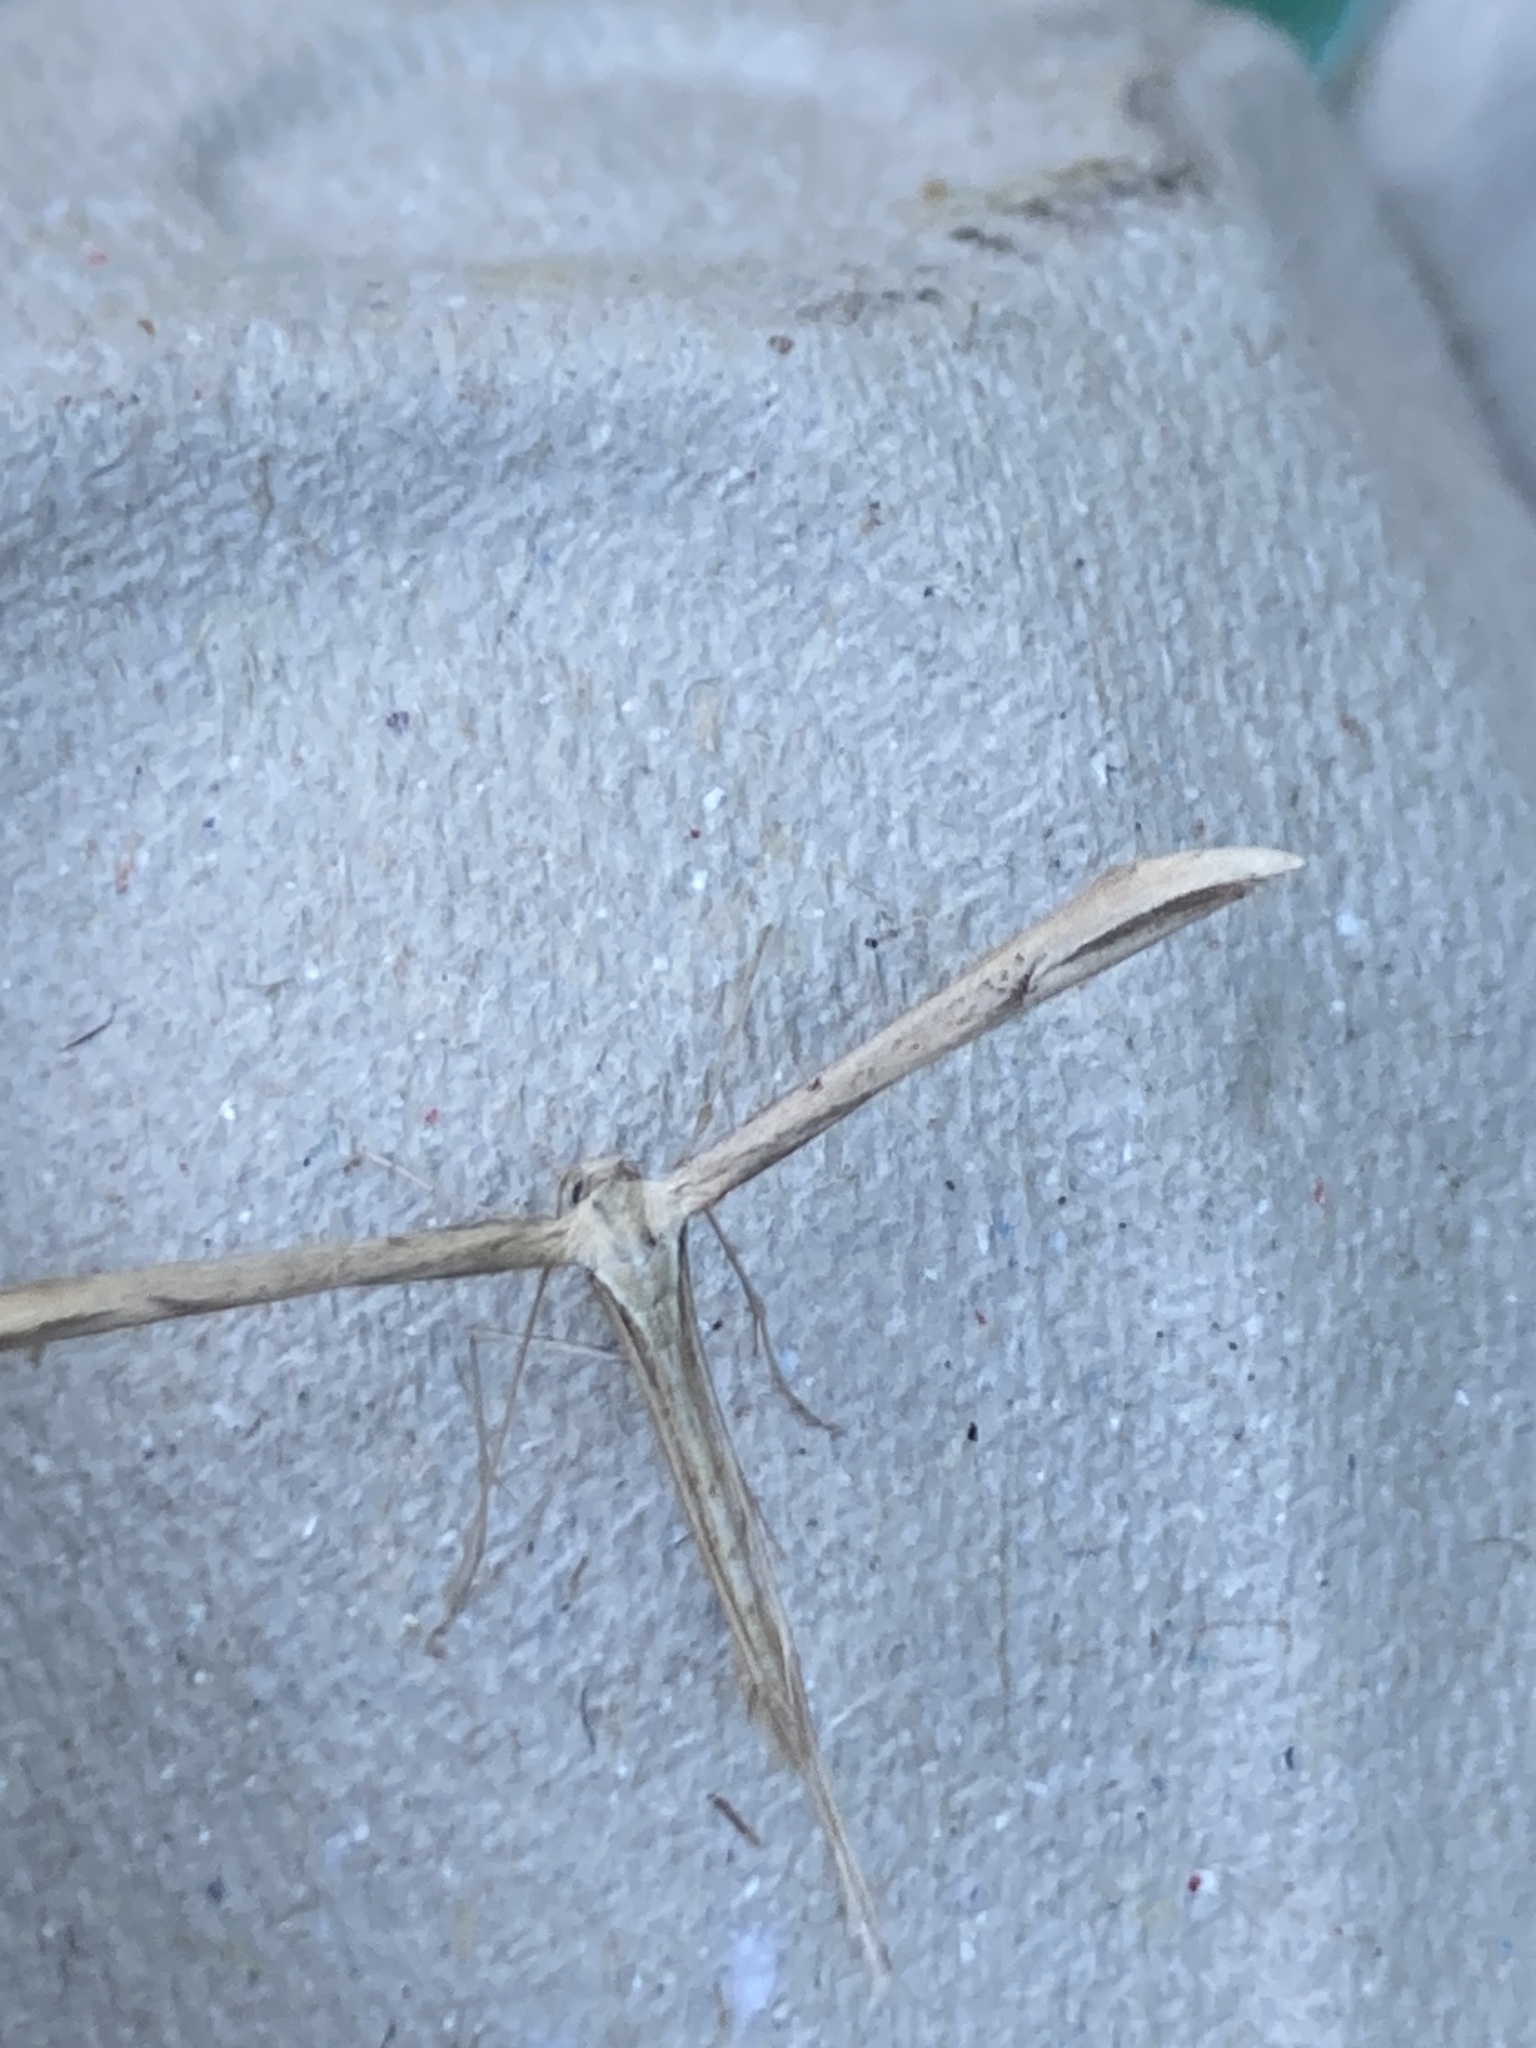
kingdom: Animalia
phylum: Arthropoda
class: Insecta
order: Lepidoptera
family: Pterophoridae
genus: Emmelina
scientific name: Emmelina monodactyla
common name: Common plume
